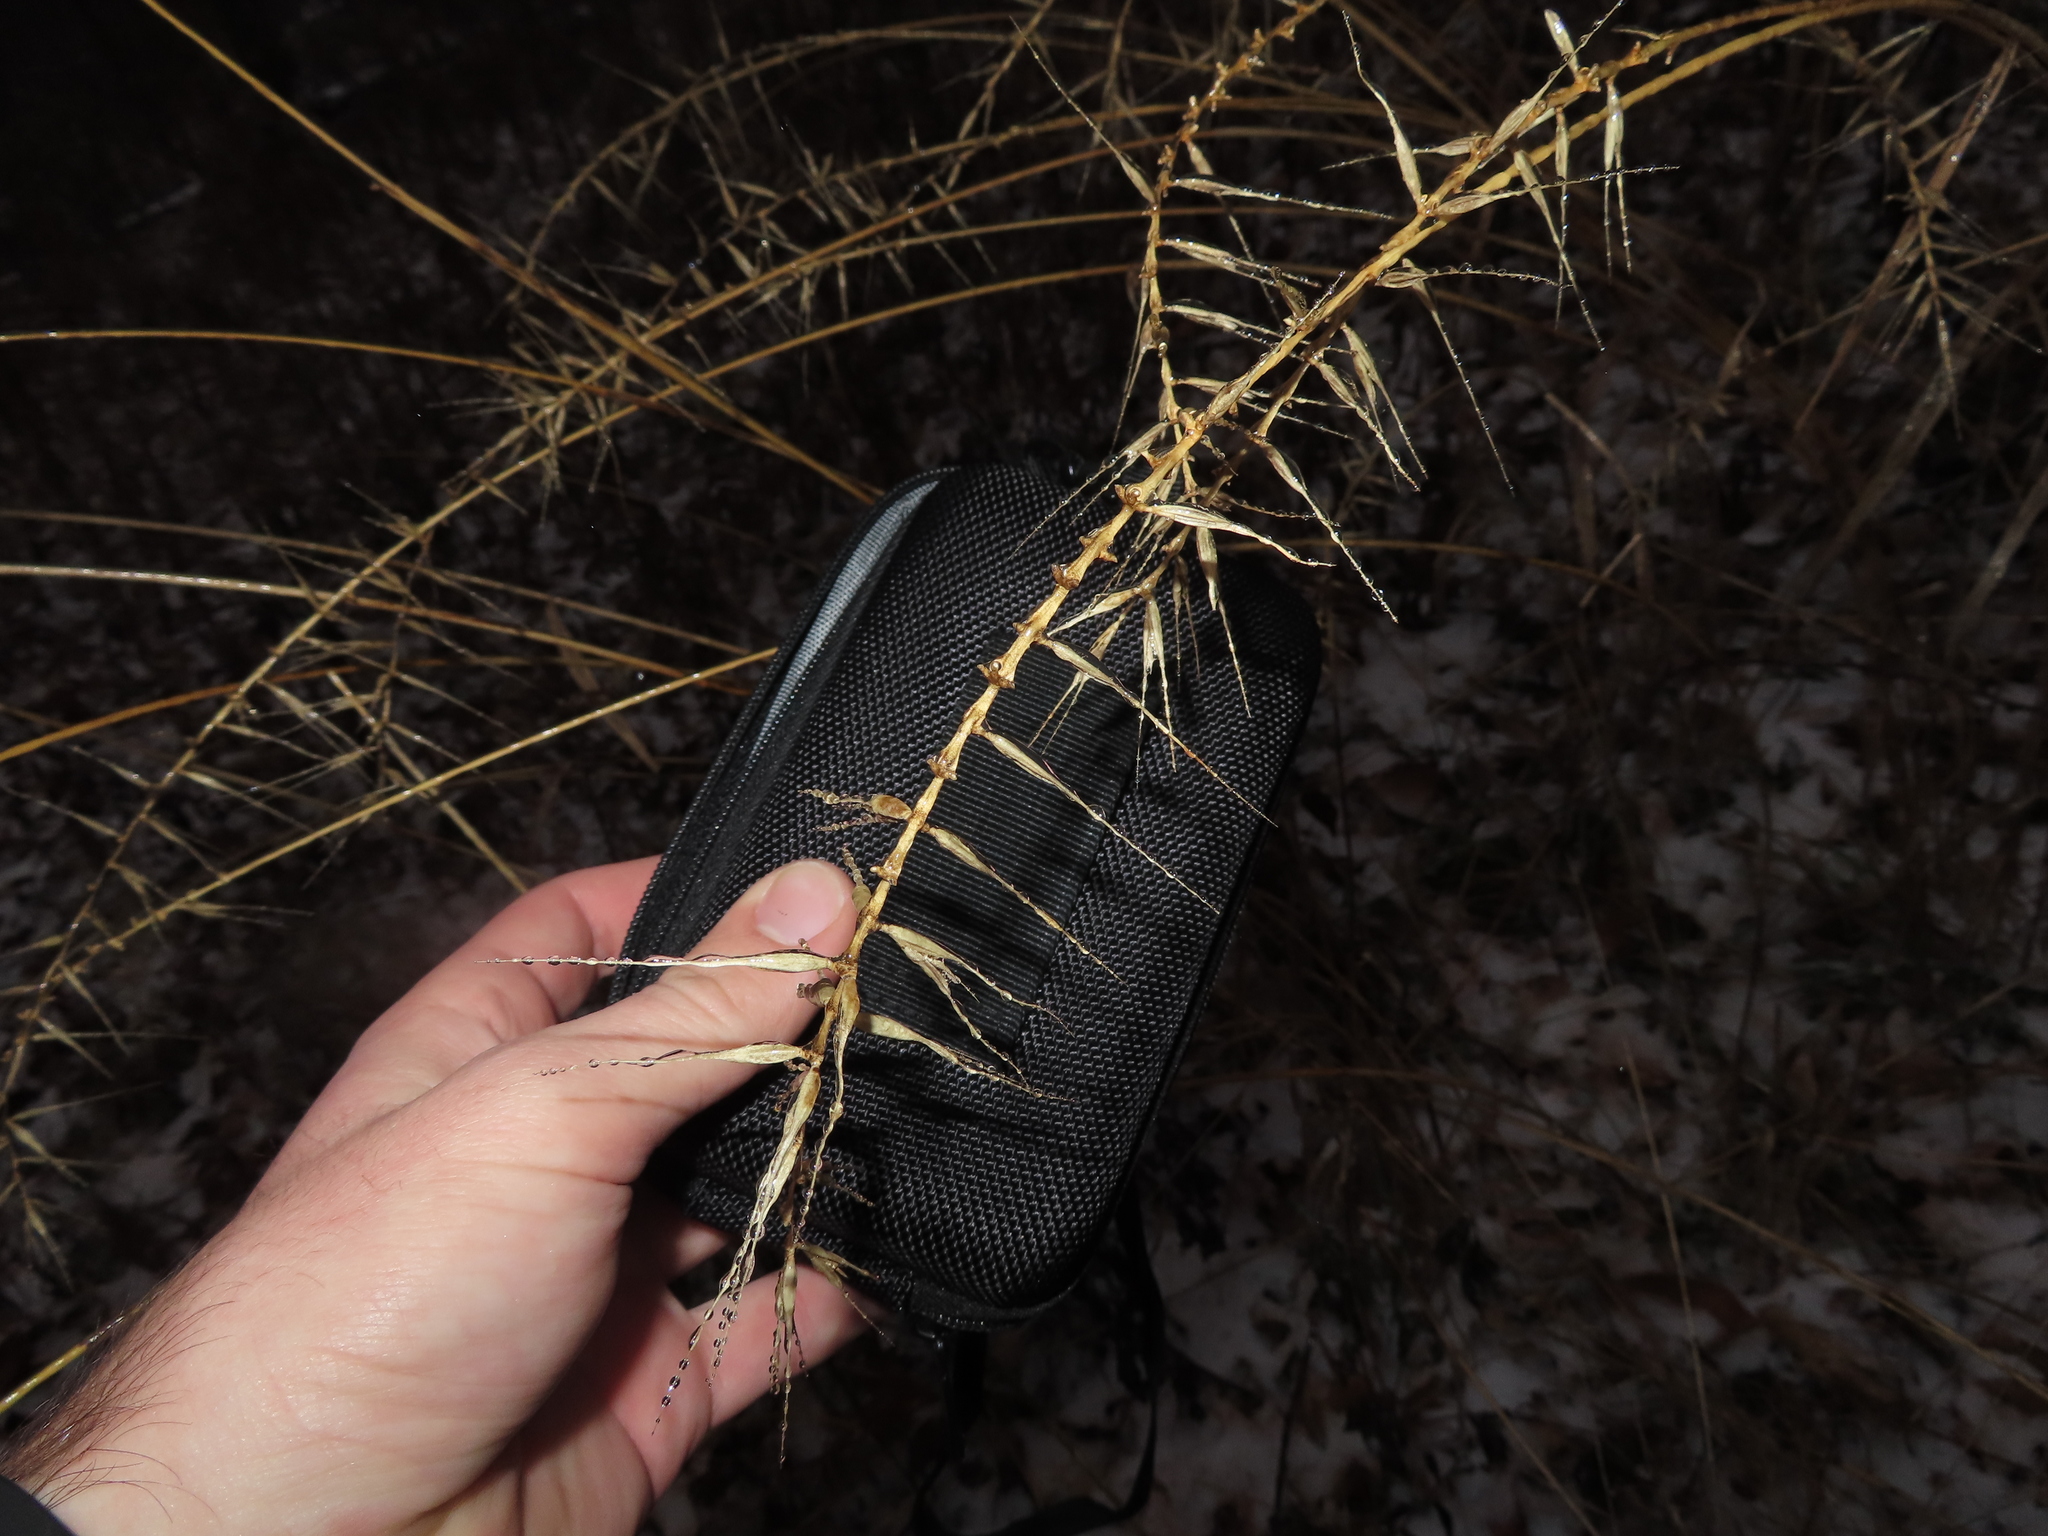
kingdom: Plantae
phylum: Tracheophyta
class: Liliopsida
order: Poales
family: Poaceae
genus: Elymus
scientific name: Elymus hystrix
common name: Bottlebrush grass
